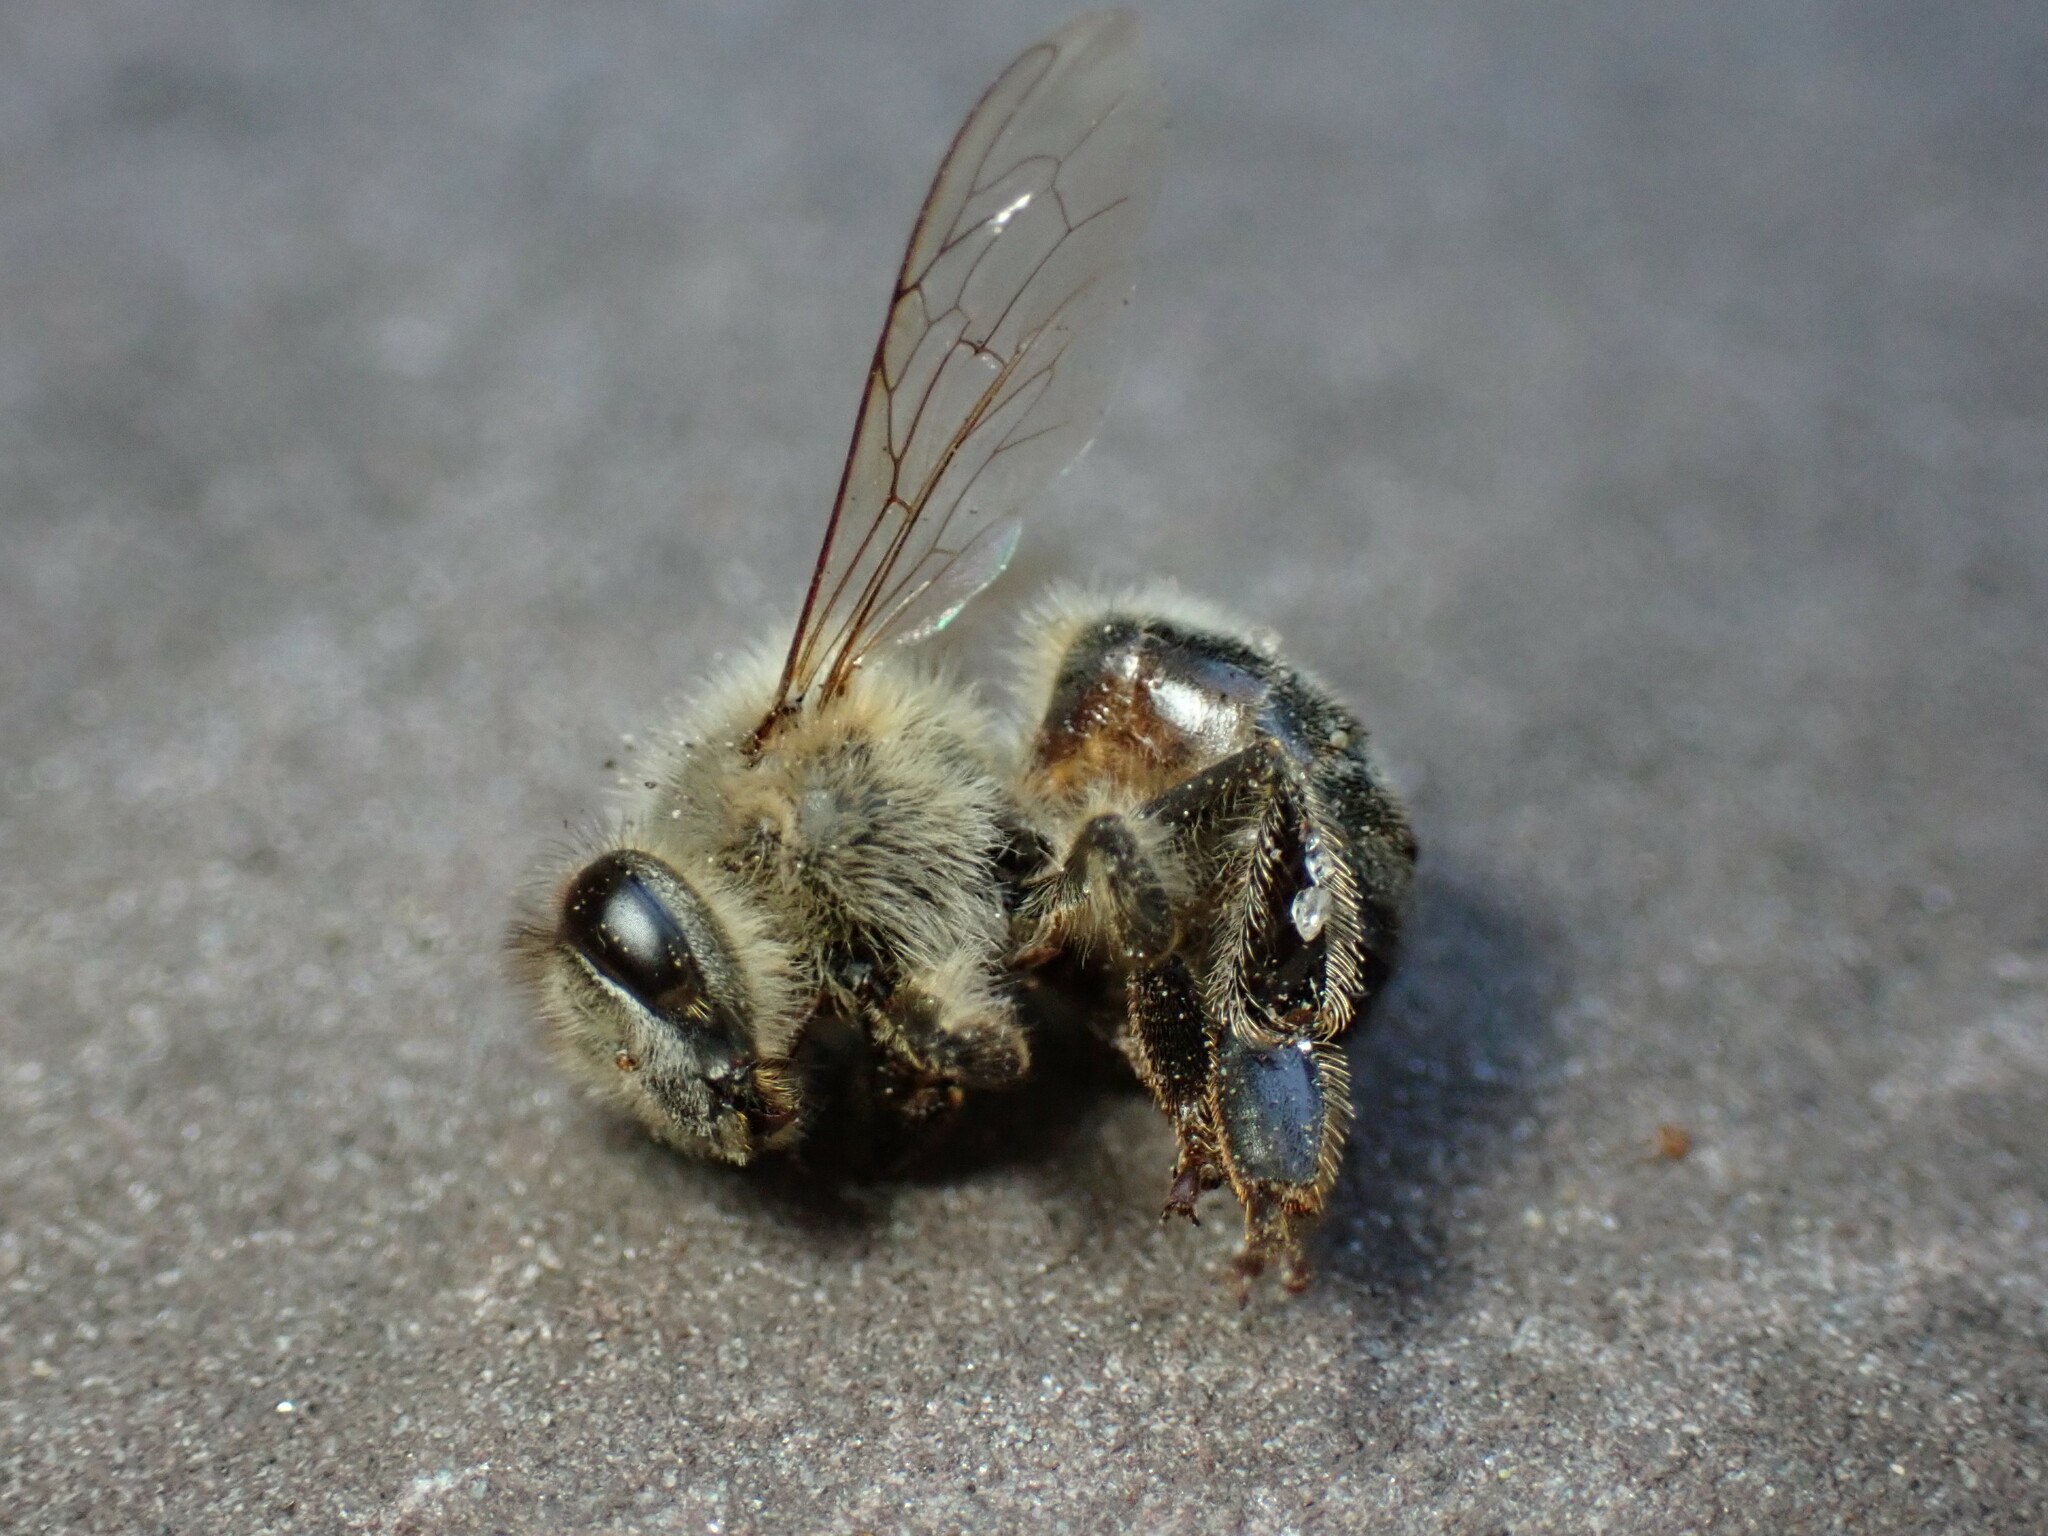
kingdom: Animalia
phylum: Arthropoda
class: Insecta
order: Hymenoptera
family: Apidae
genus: Apis
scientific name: Apis mellifera
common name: Honey bee
